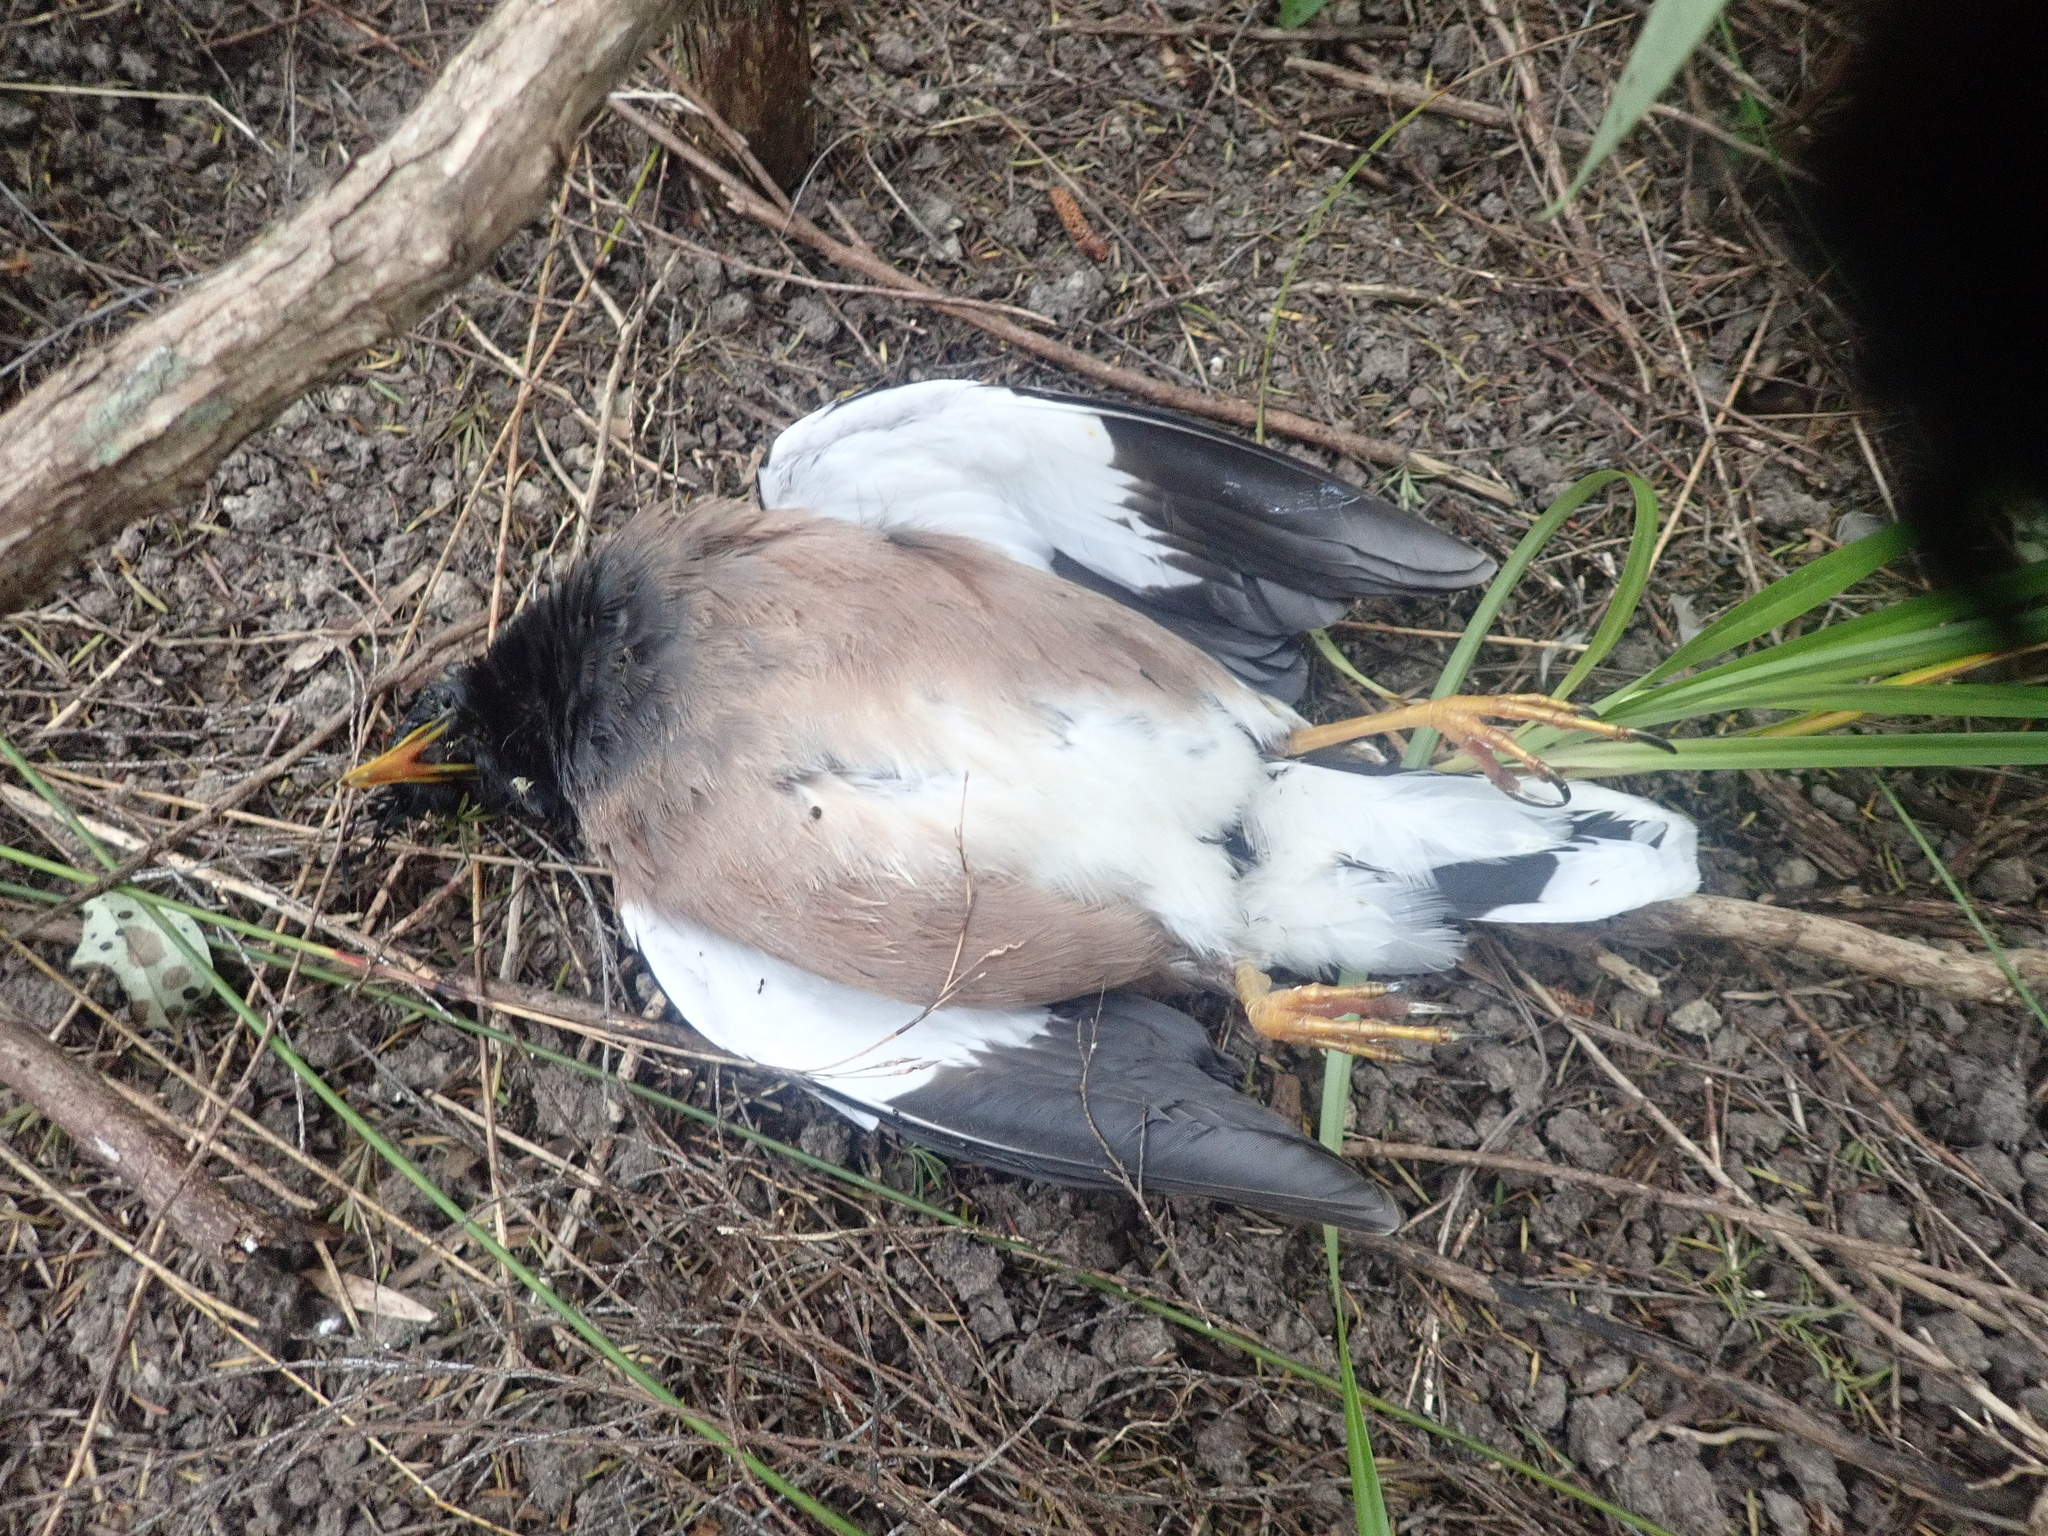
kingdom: Animalia
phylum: Chordata
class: Aves
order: Passeriformes
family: Sturnidae
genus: Acridotheres
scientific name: Acridotheres tristis
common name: Common myna
